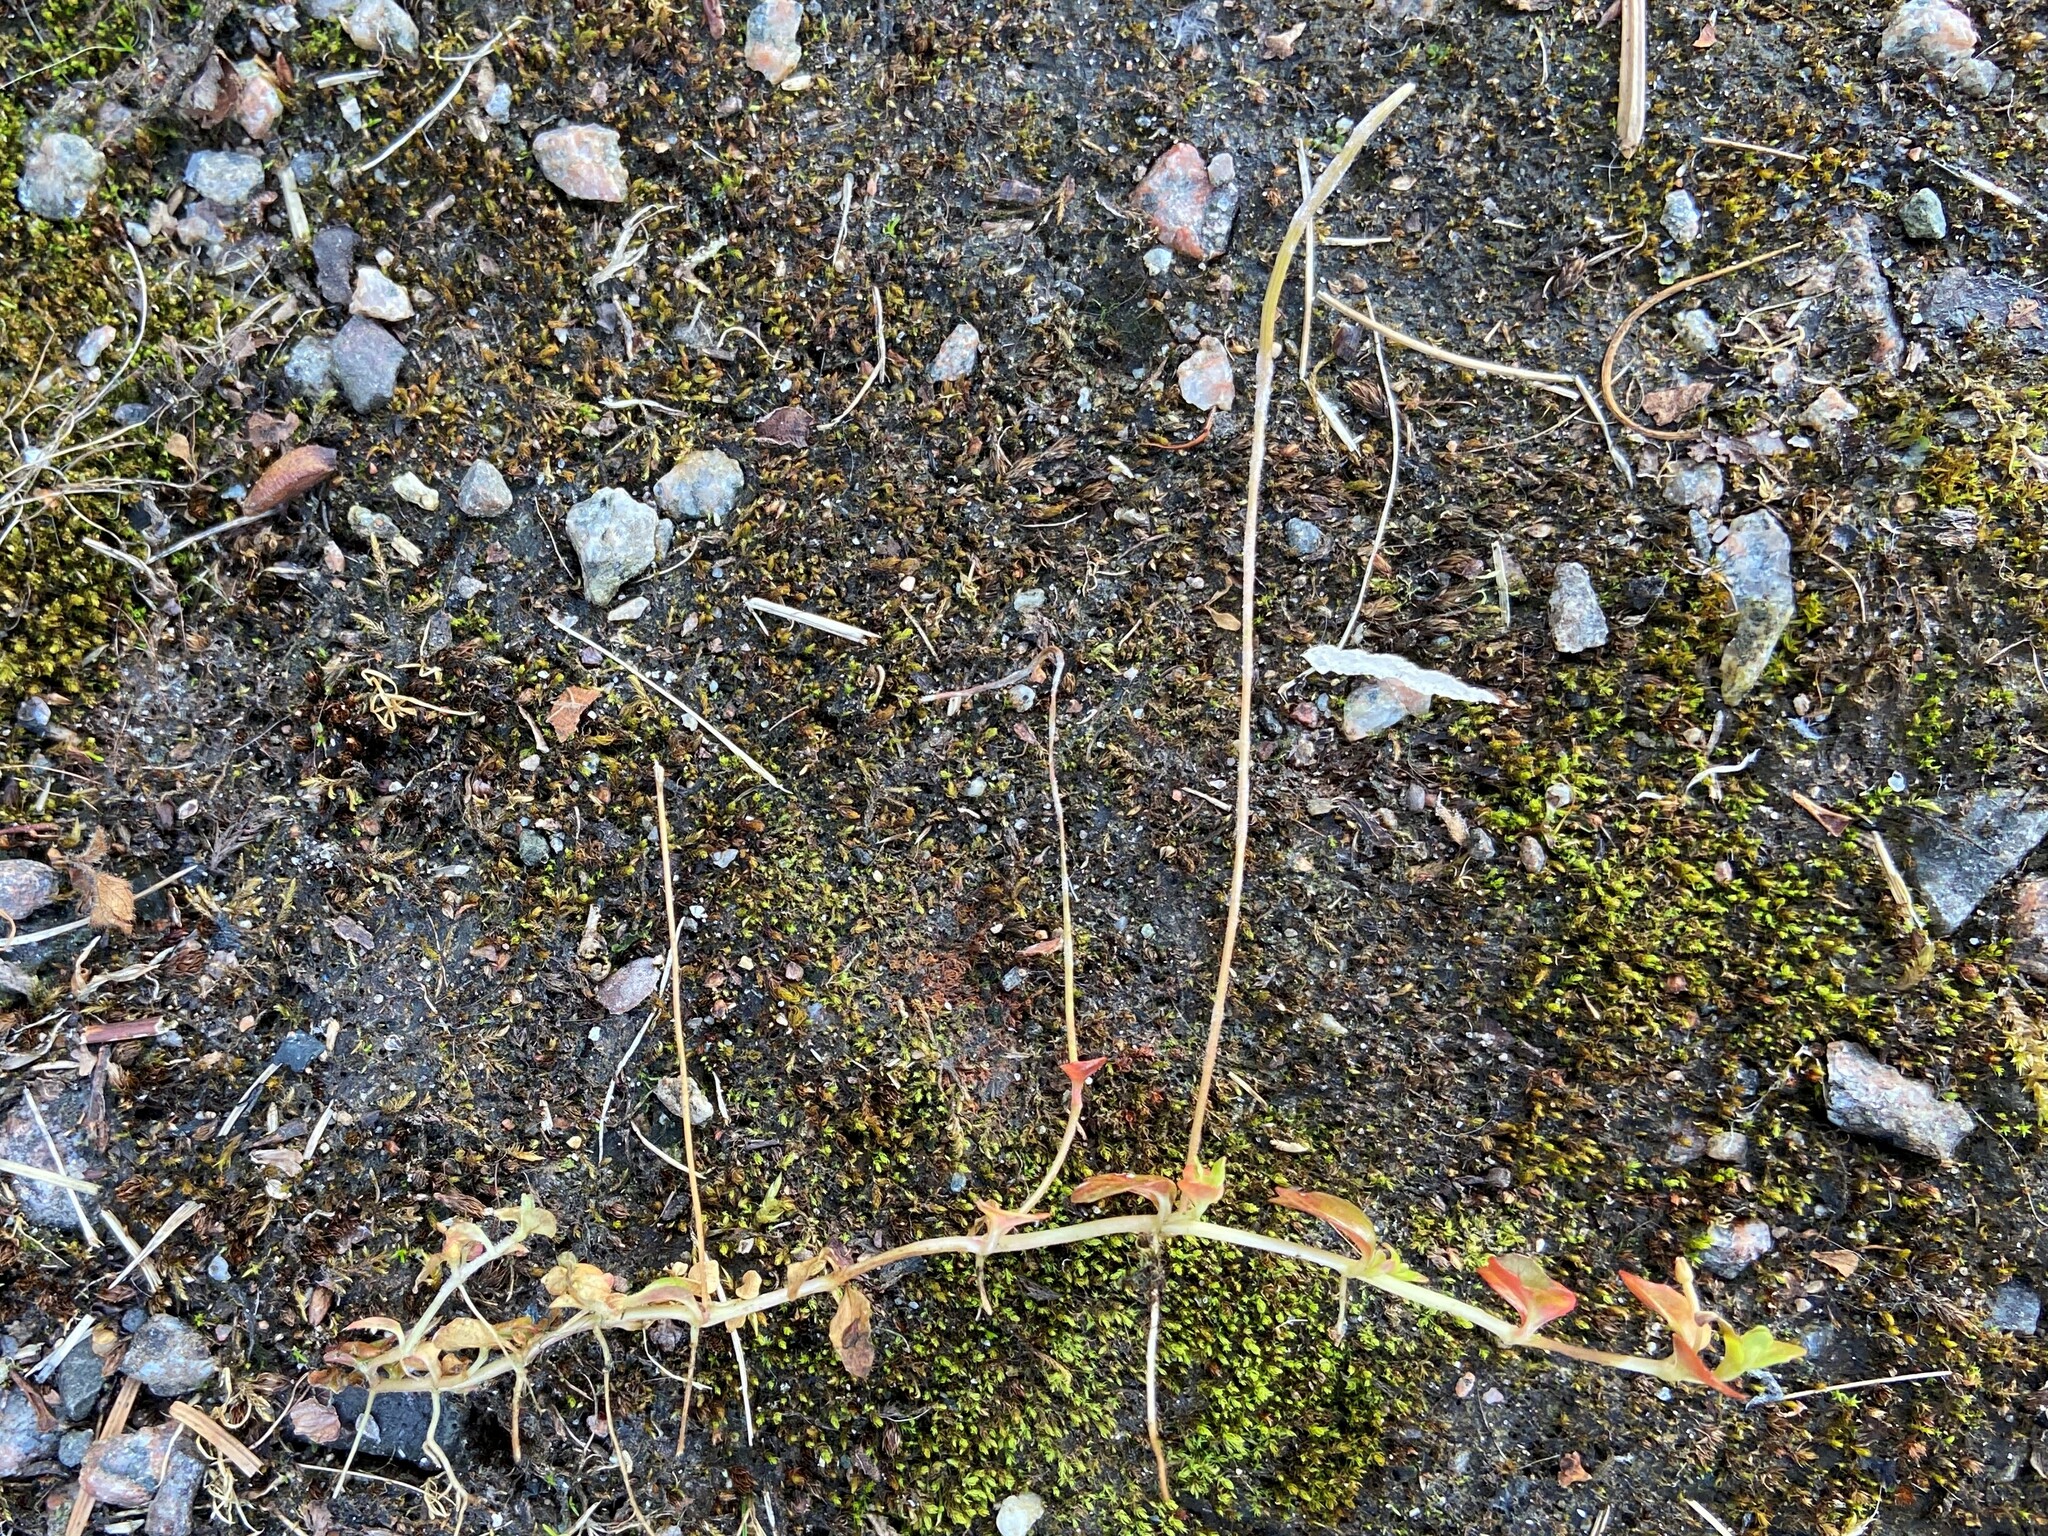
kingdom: Plantae
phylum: Tracheophyta
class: Magnoliopsida
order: Myrtales
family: Onagraceae
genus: Epilobium
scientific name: Epilobium brunnescens
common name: New zealand willowherb
